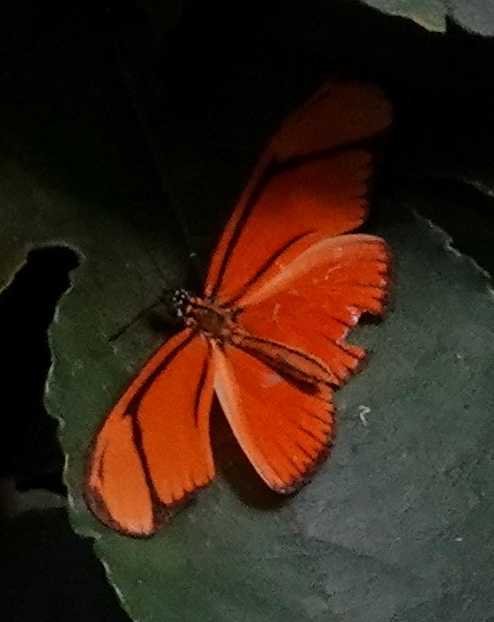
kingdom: Animalia
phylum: Arthropoda
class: Insecta
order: Lepidoptera
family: Nymphalidae
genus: Heliconius
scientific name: Heliconius aliphera
